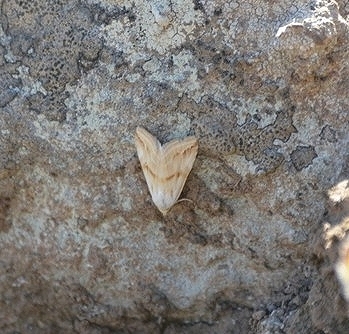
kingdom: Animalia
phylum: Arthropoda
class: Insecta
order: Lepidoptera
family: Noctuidae
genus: Eublemma
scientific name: Eublemma cochylioides
